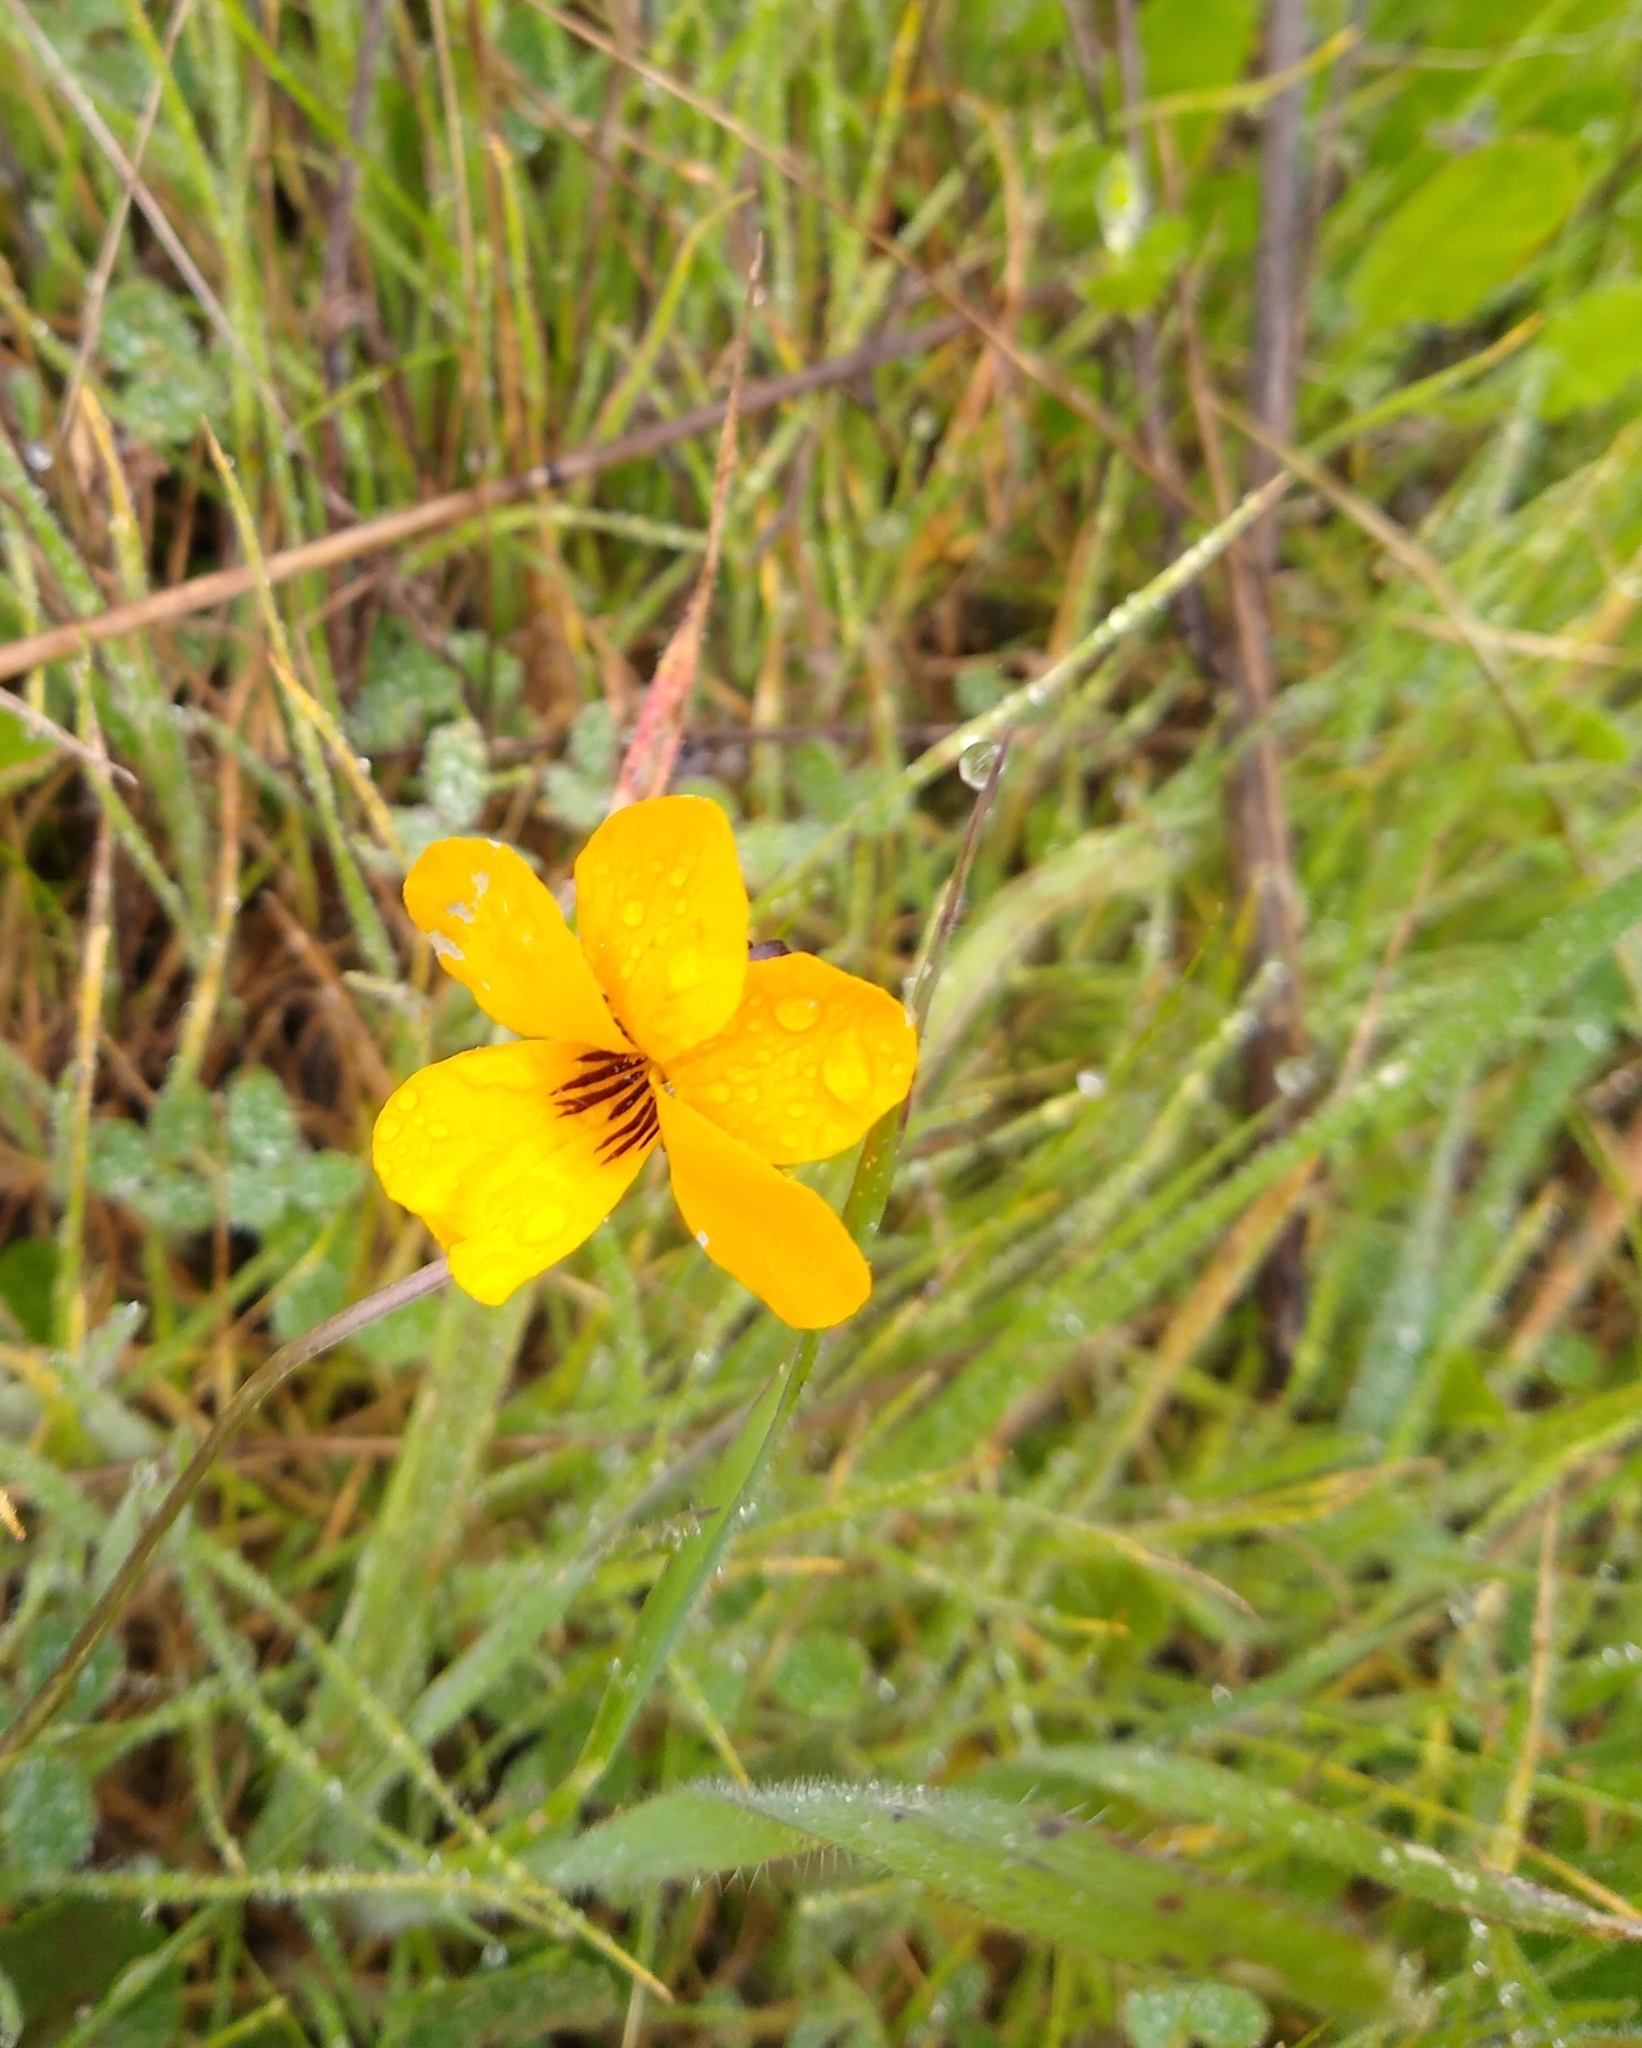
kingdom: Plantae
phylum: Tracheophyta
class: Magnoliopsida
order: Malpighiales
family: Violaceae
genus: Viola
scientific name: Viola pedunculata
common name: California golden violet
